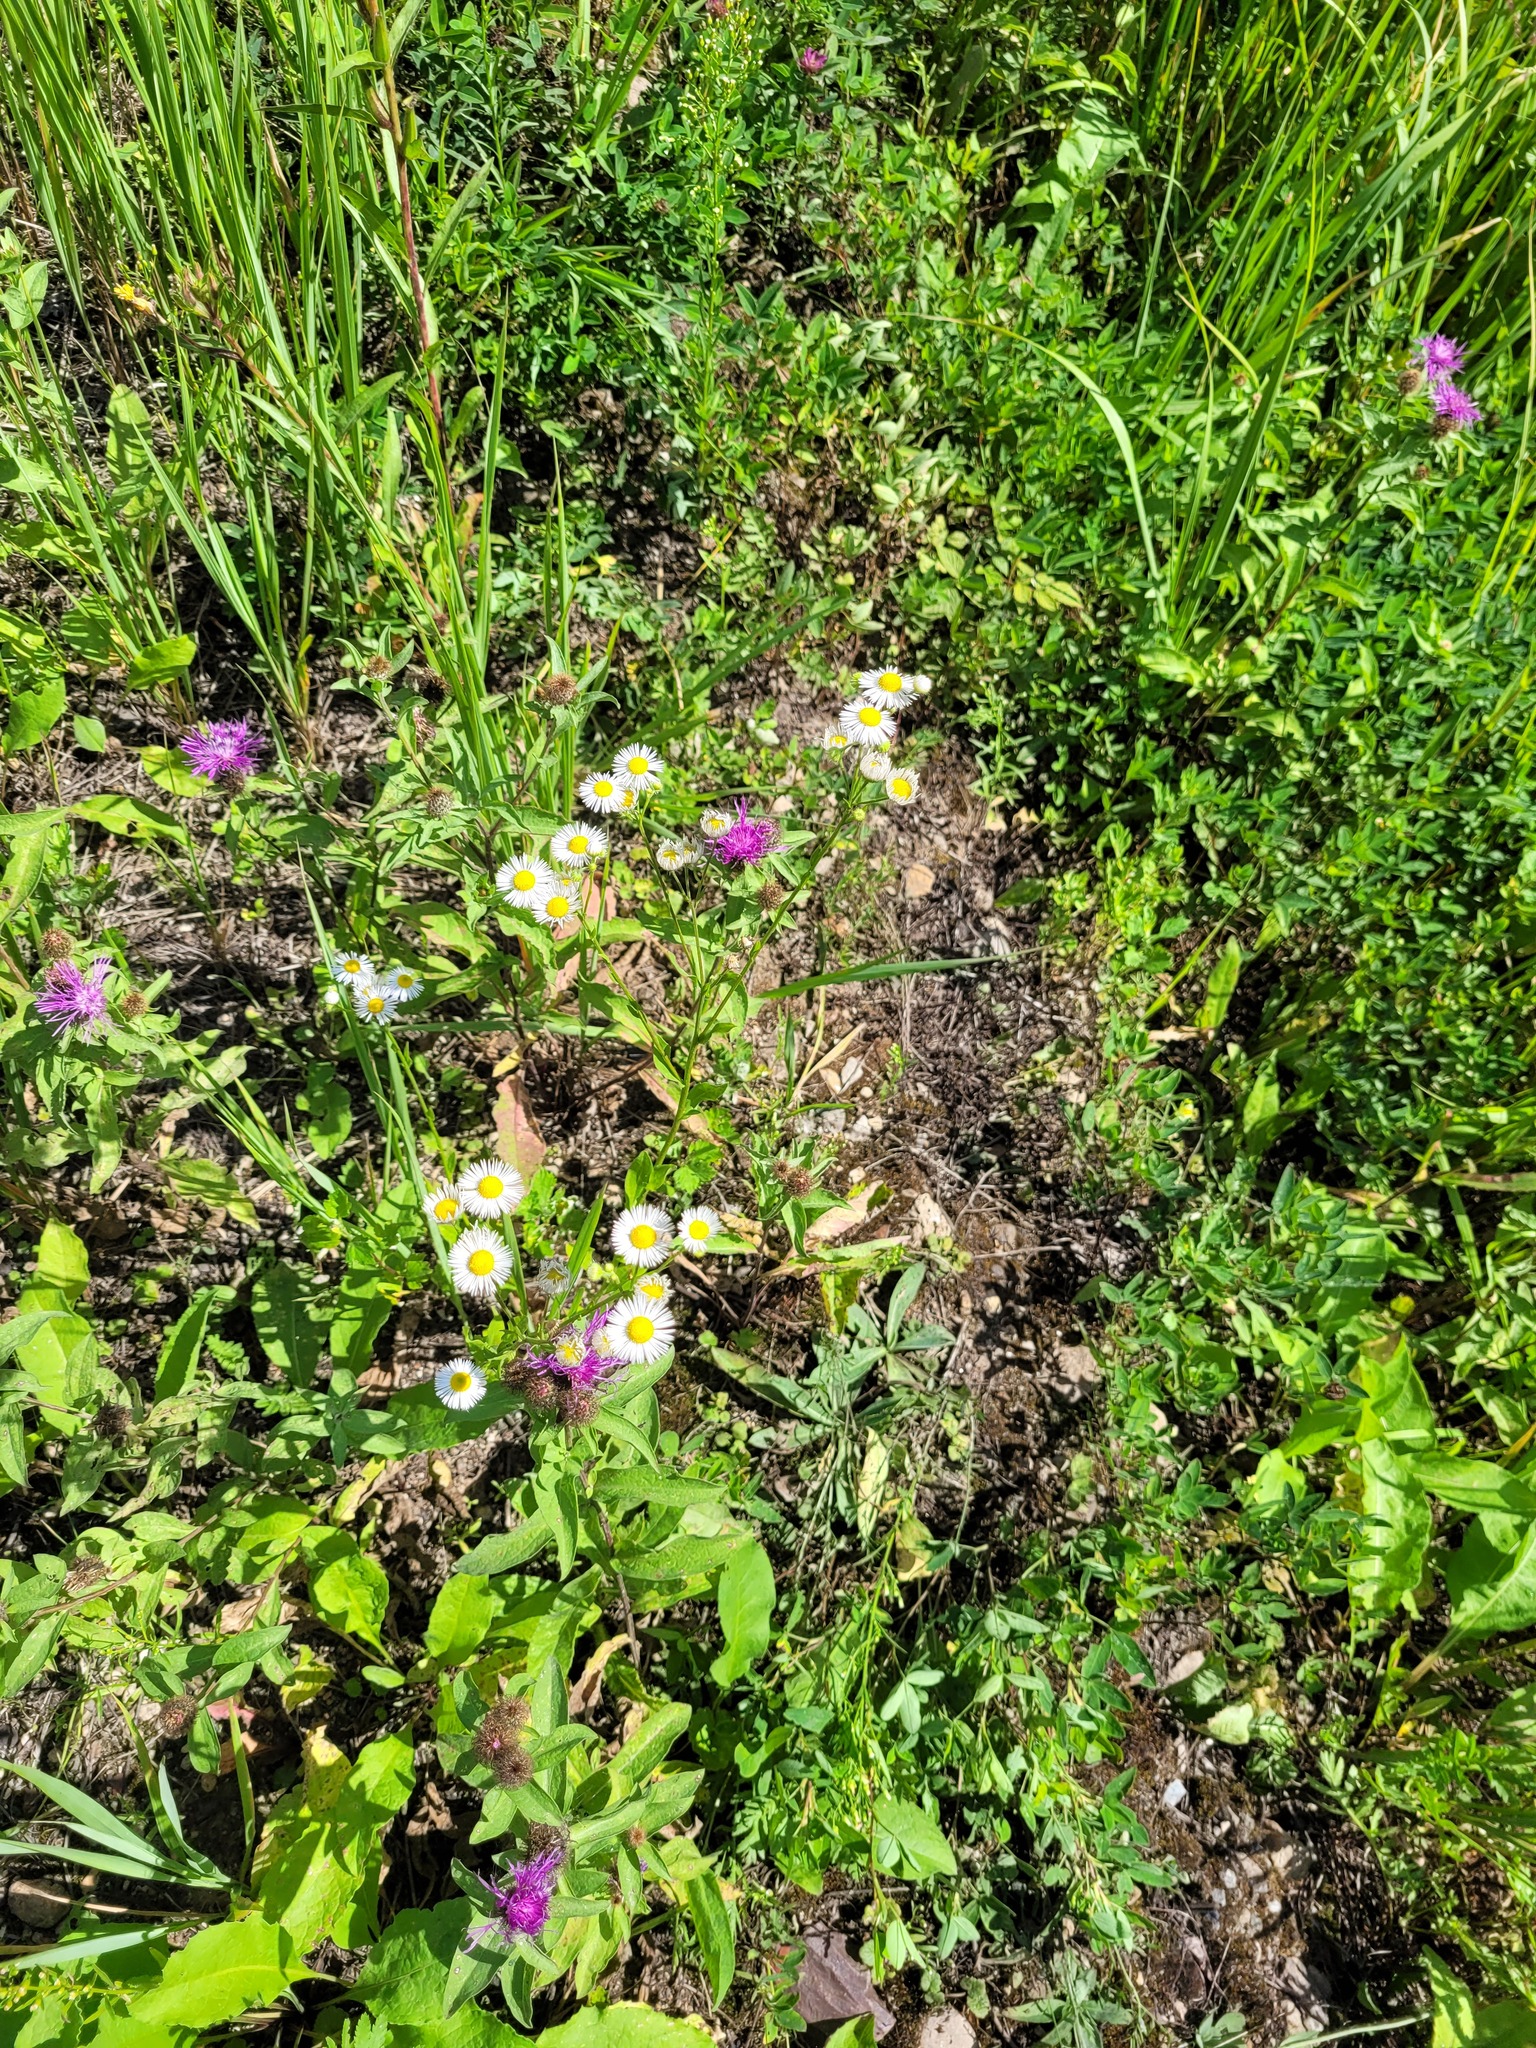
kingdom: Plantae
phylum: Tracheophyta
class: Magnoliopsida
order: Asterales
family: Asteraceae
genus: Erigeron
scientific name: Erigeron annuus
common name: Tall fleabane
